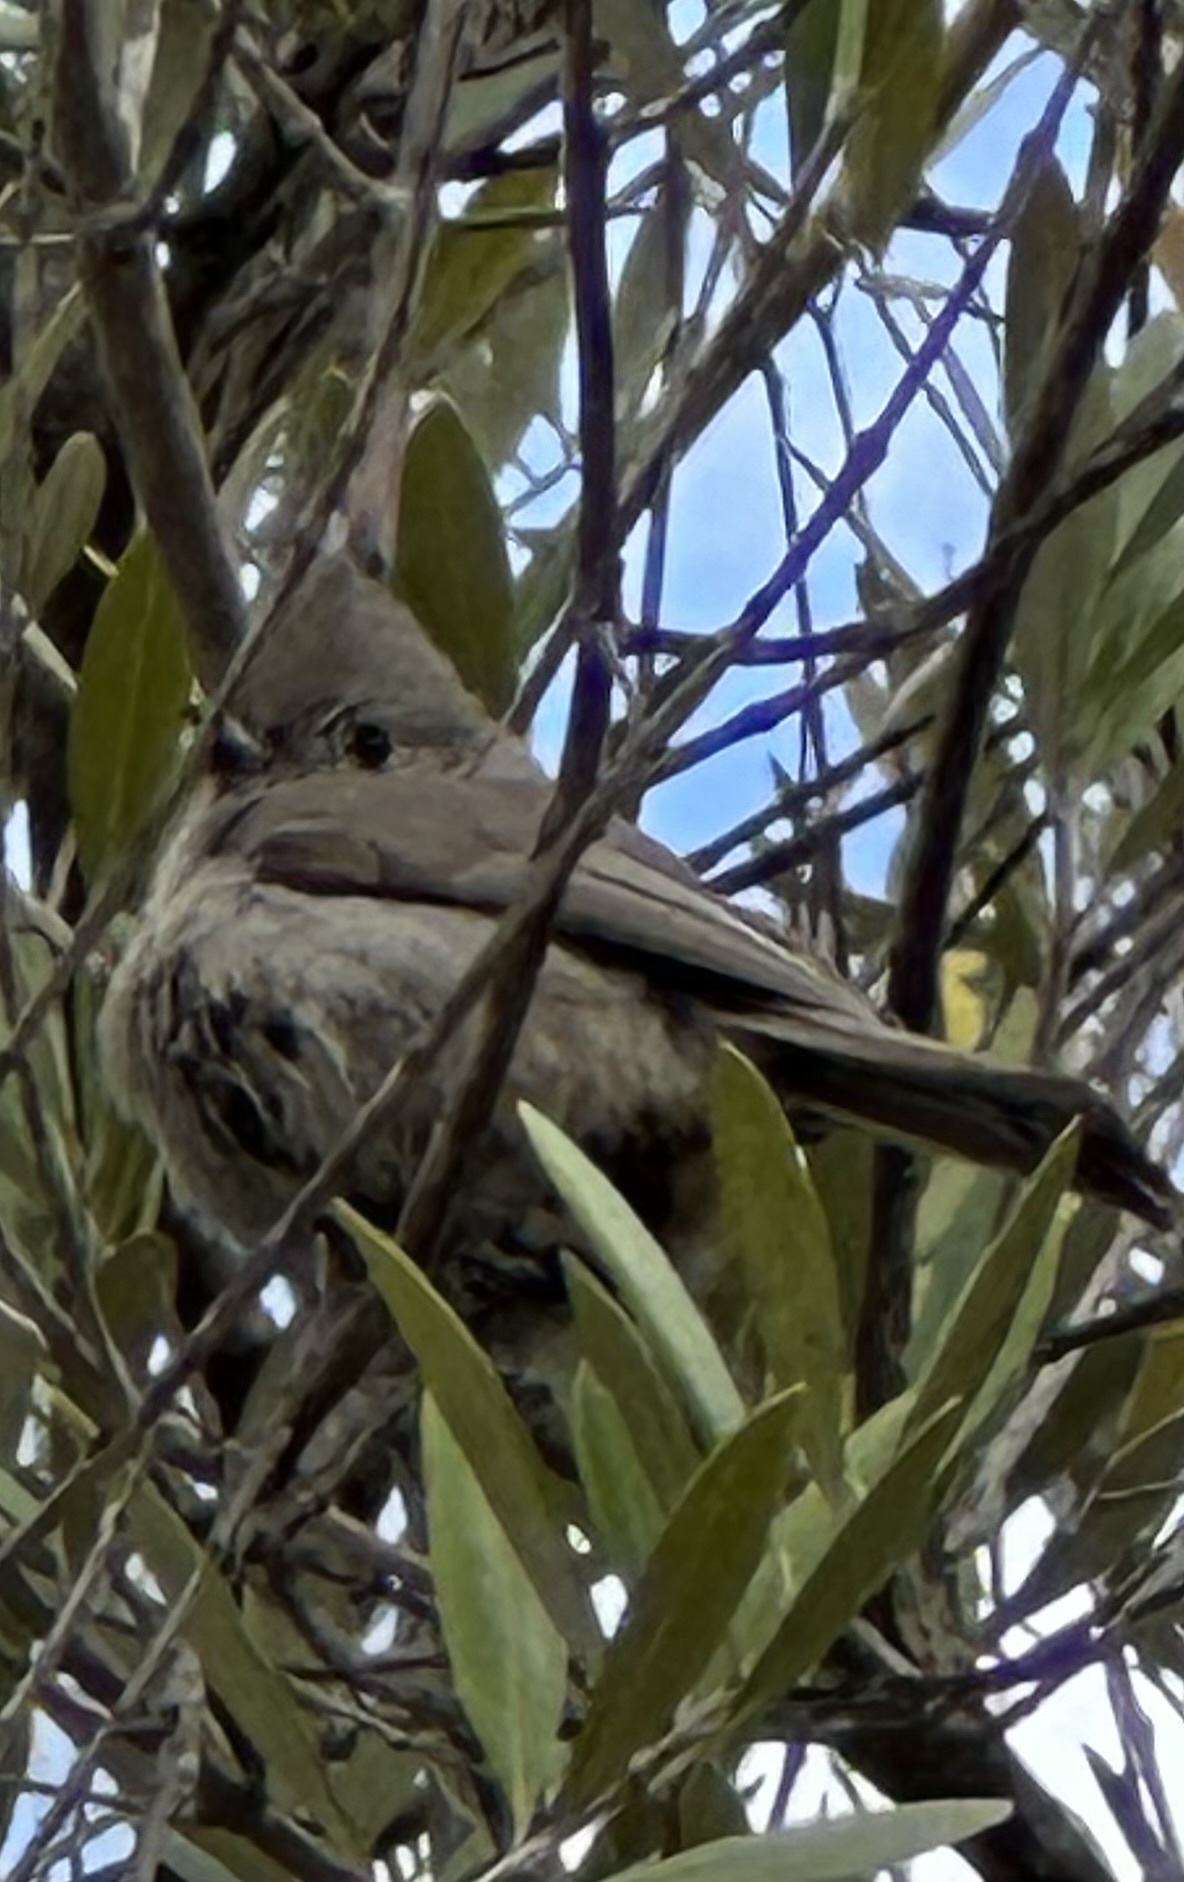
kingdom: Animalia
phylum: Chordata
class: Aves
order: Passeriformes
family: Paridae
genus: Baeolophus
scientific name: Baeolophus inornatus
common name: Oak titmouse
